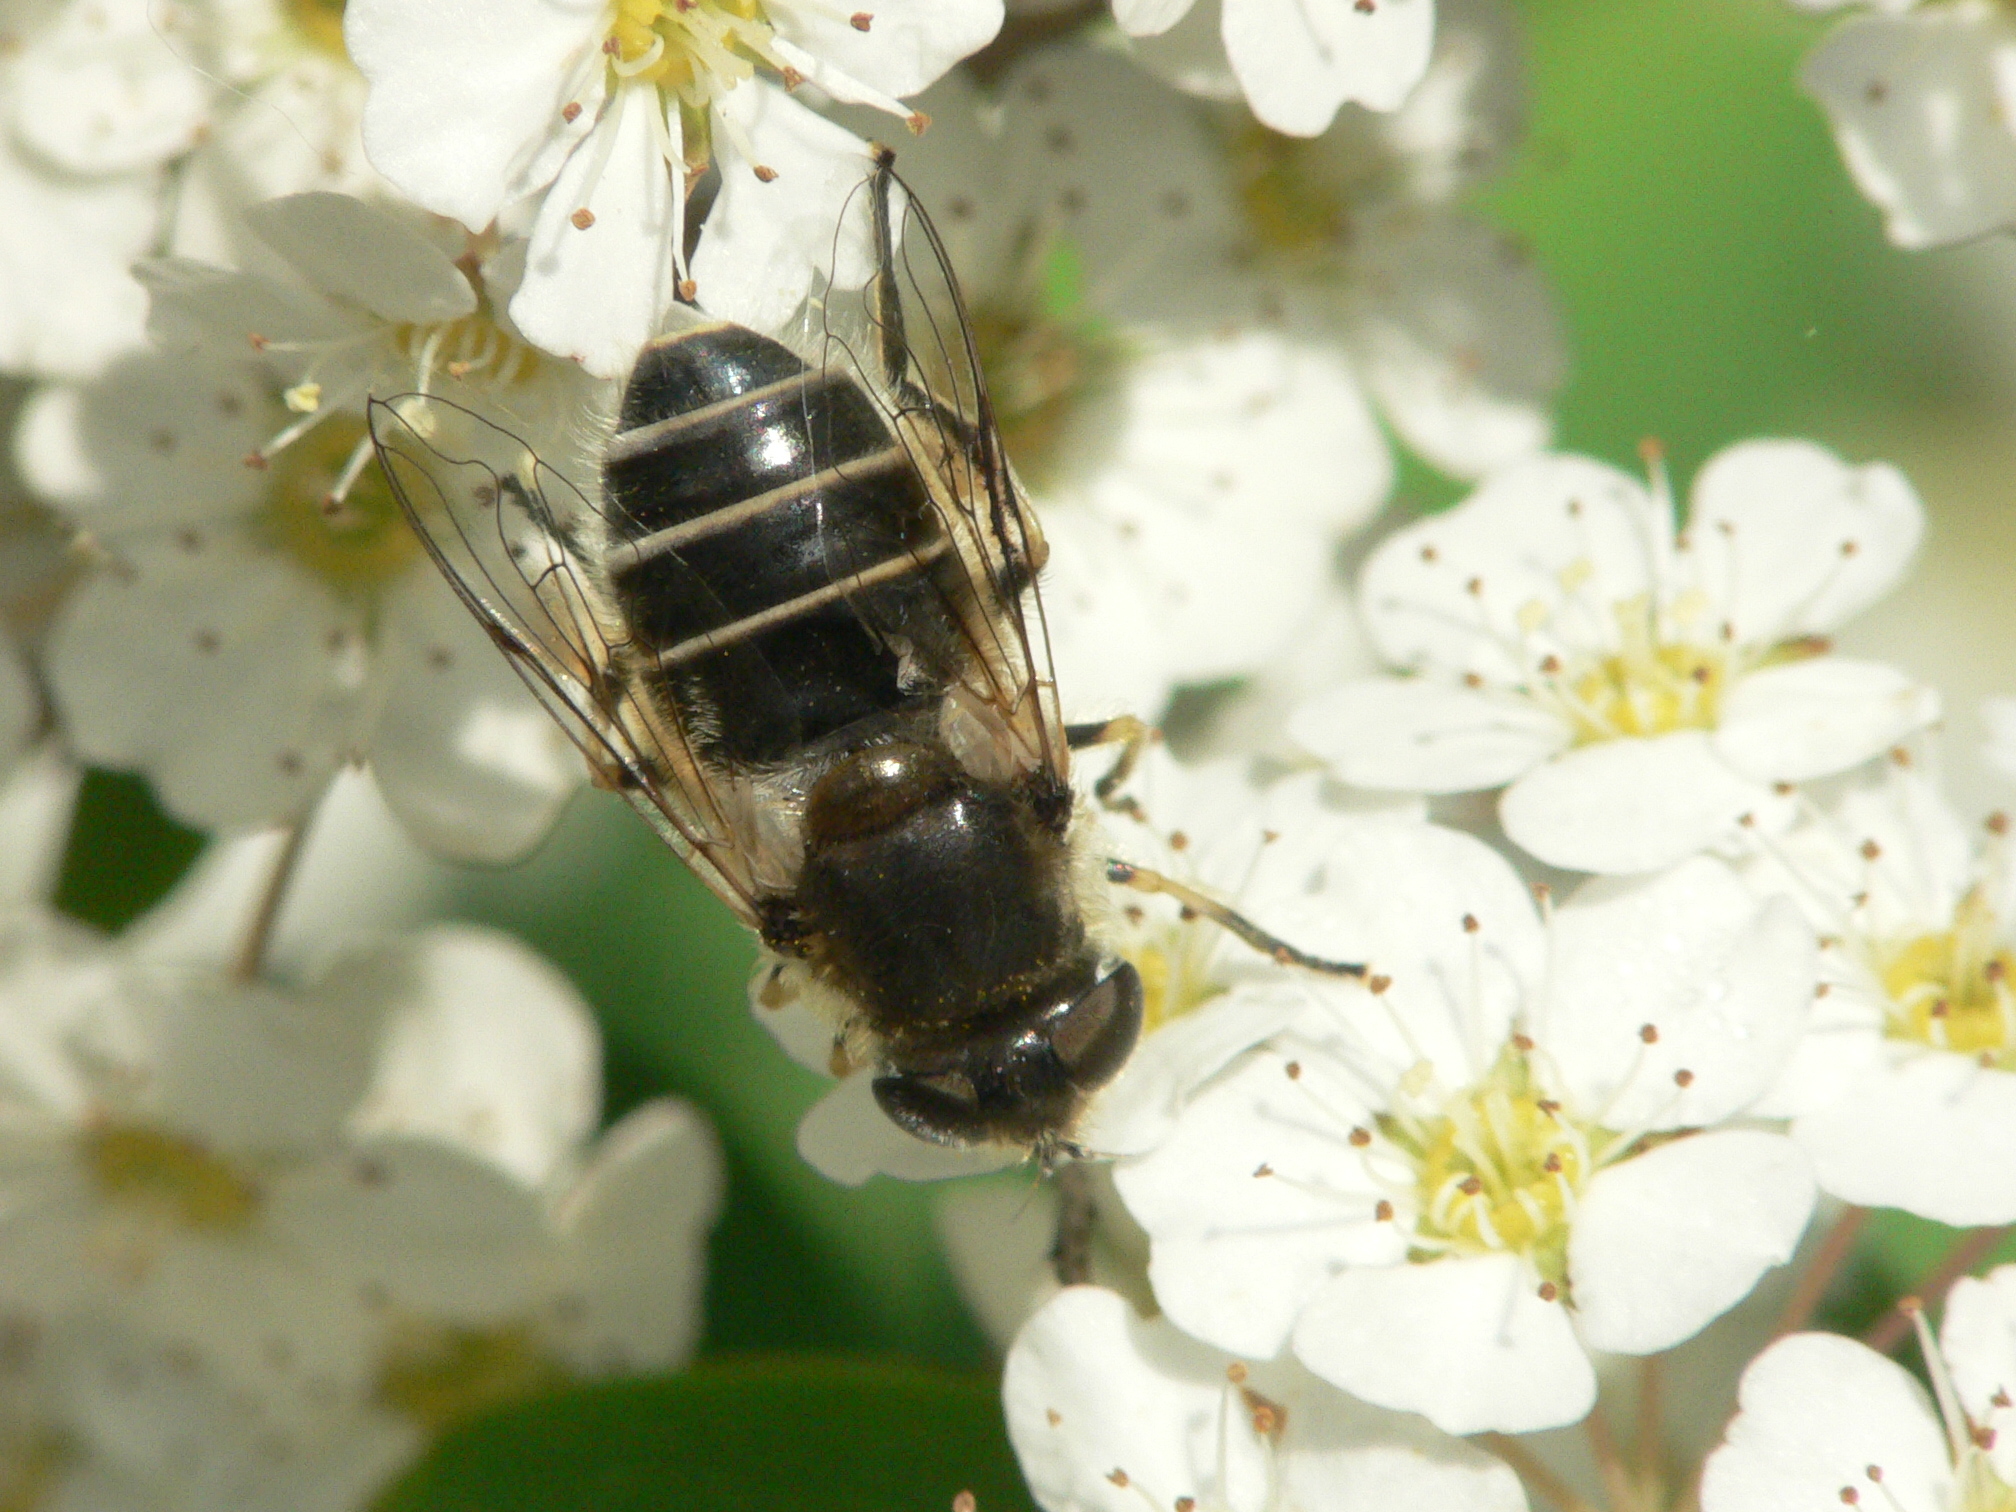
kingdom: Animalia
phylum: Arthropoda
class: Insecta
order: Diptera
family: Syrphidae
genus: Eristalis
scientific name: Eristalis arbustorum
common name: Hover fly
